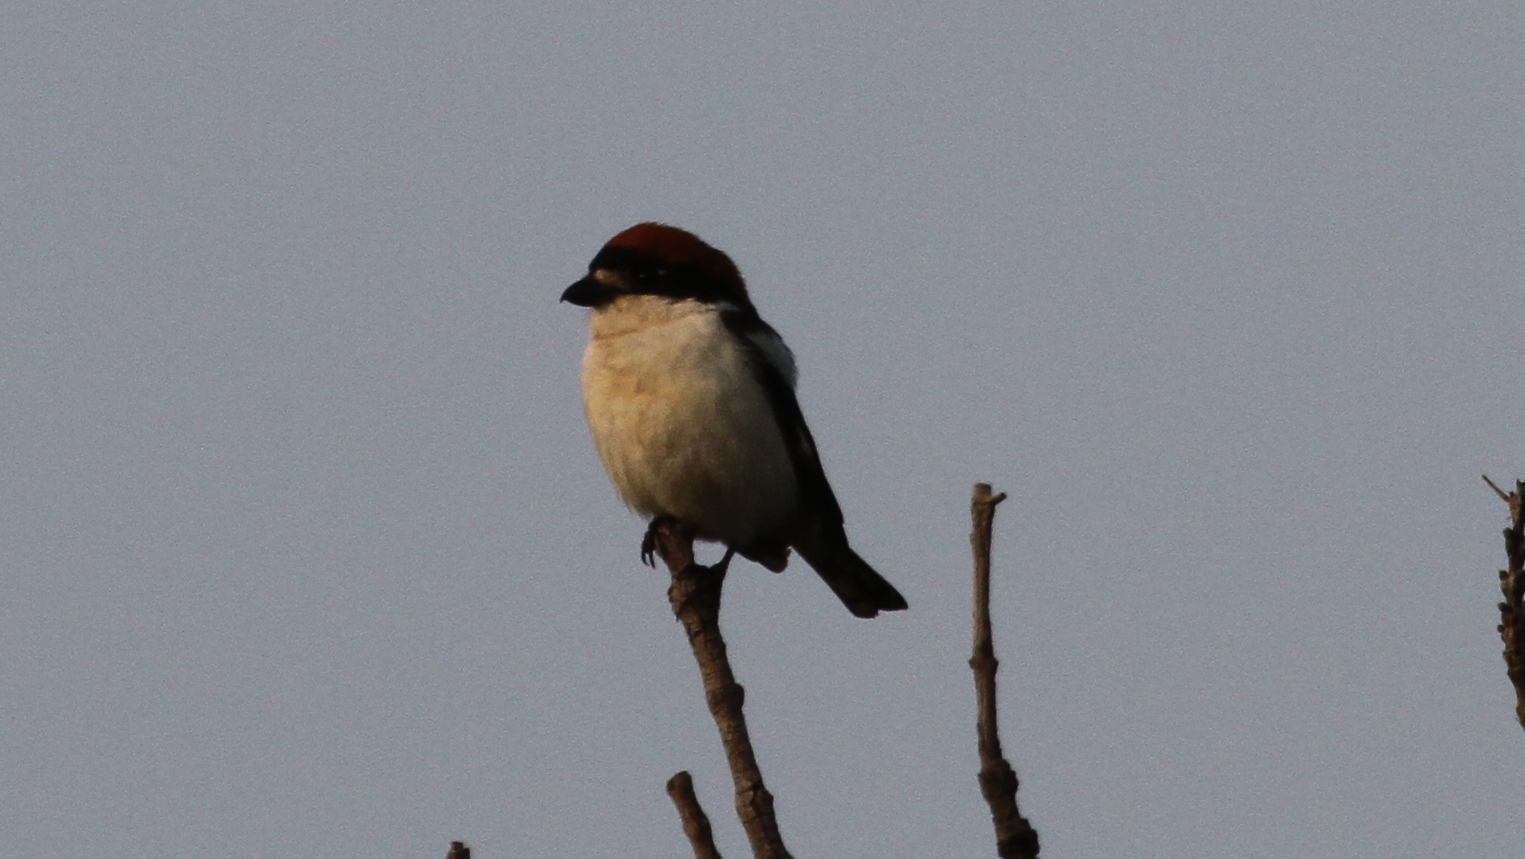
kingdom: Animalia
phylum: Chordata
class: Aves
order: Passeriformes
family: Laniidae
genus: Lanius
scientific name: Lanius senator
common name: Woodchat shrike
